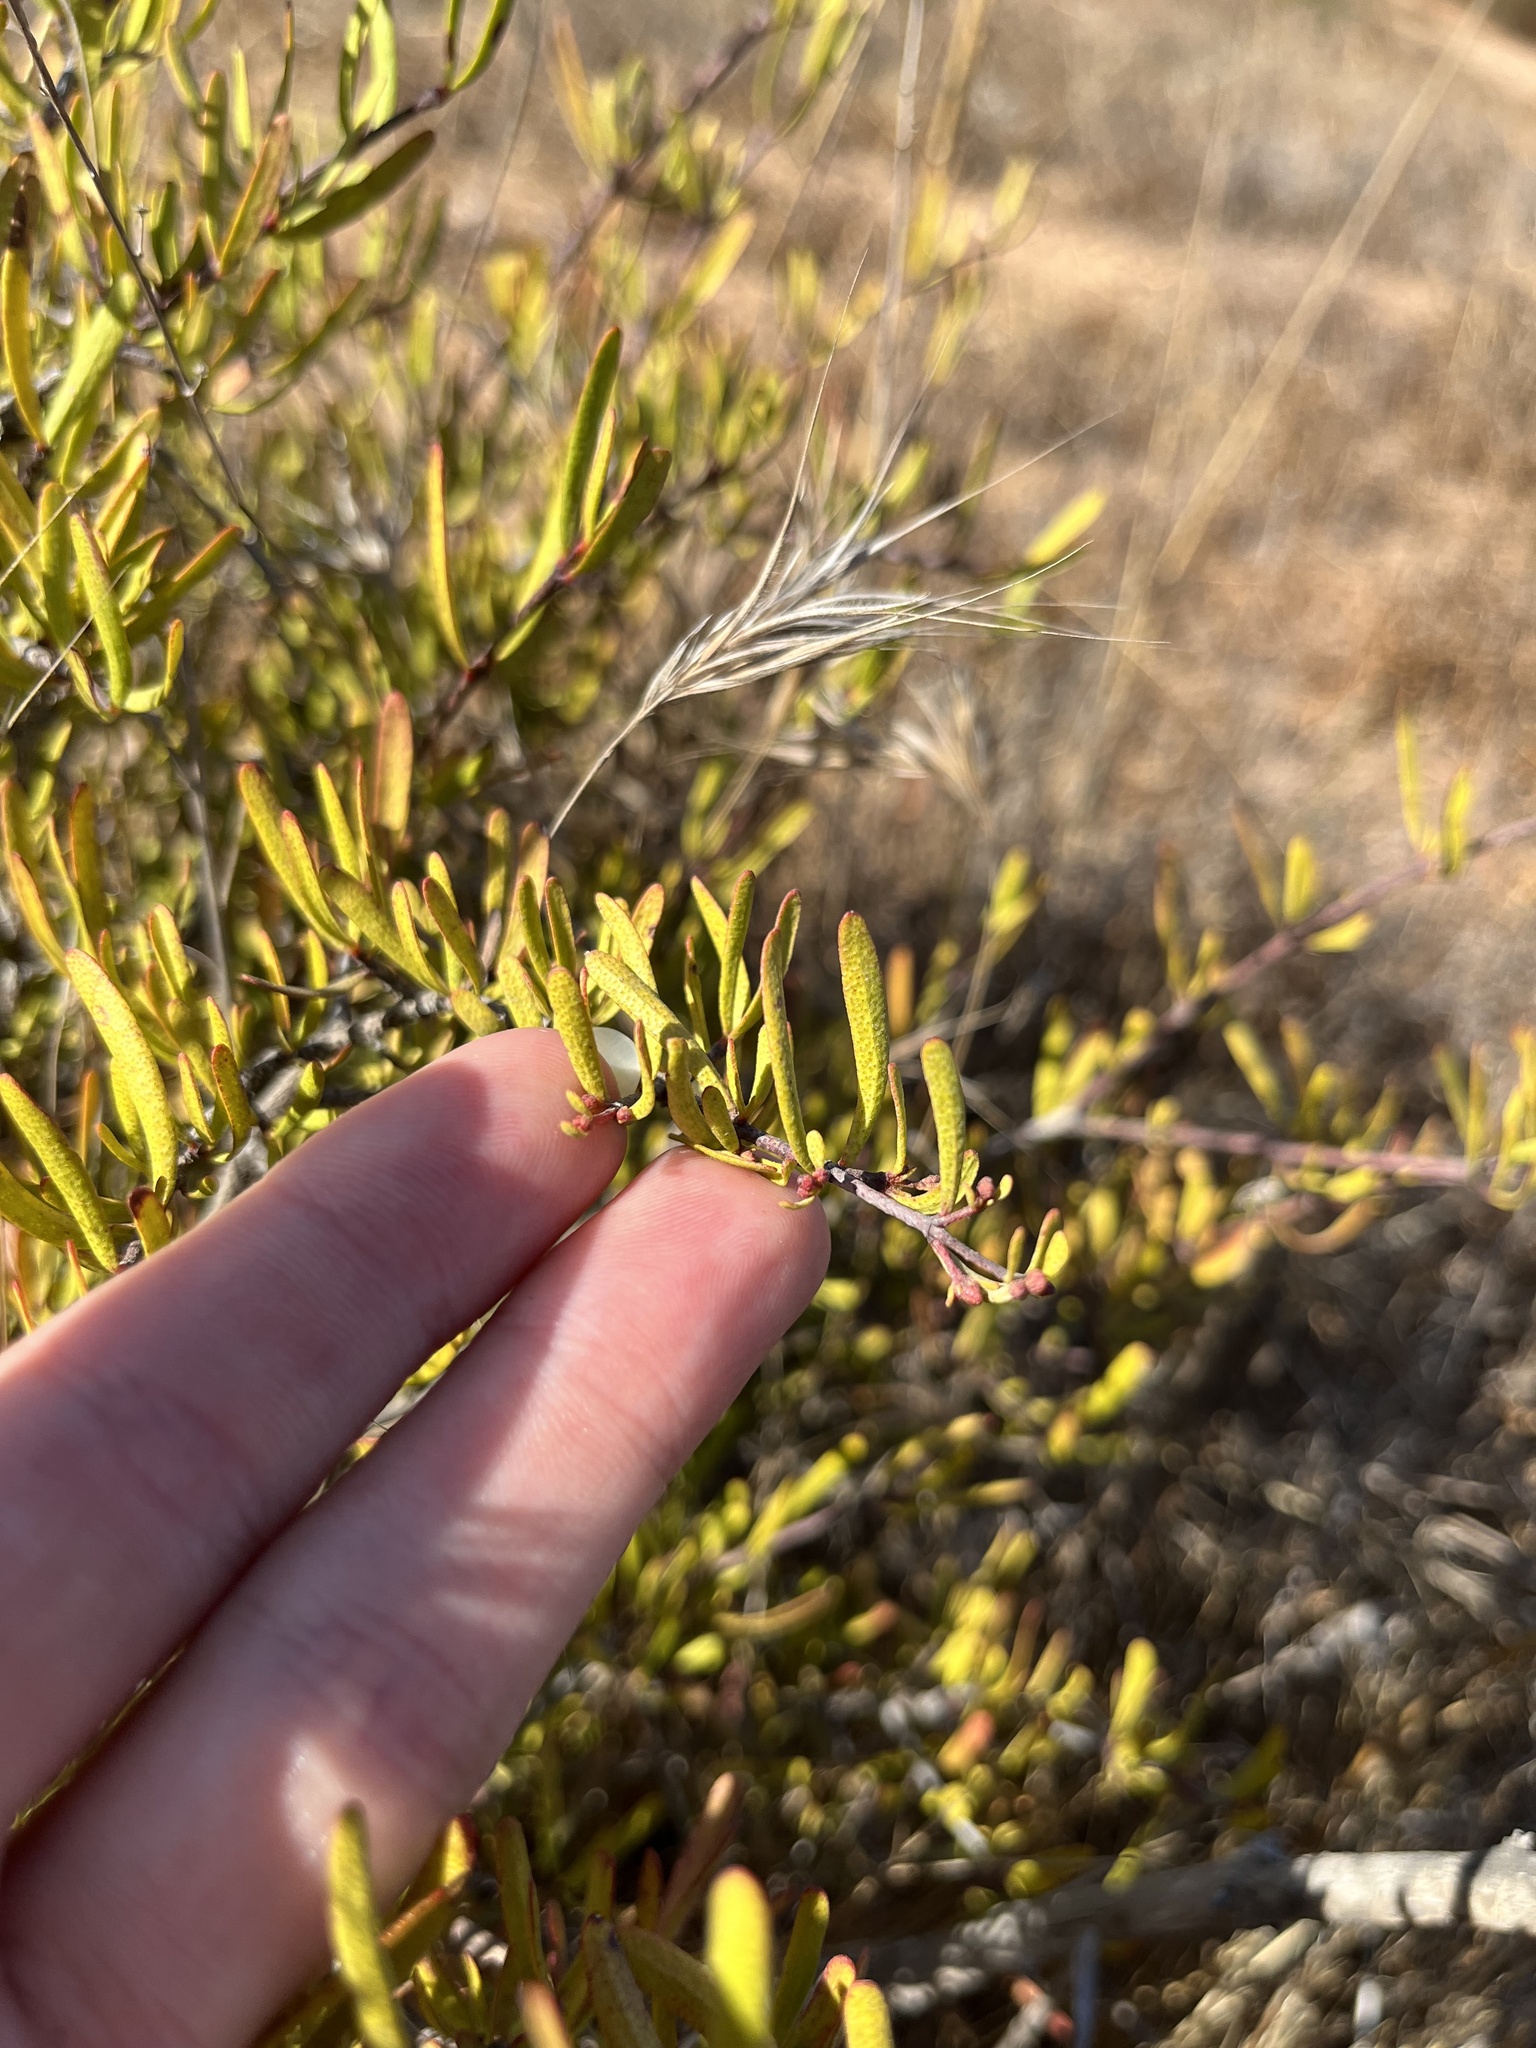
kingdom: Plantae
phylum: Tracheophyta
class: Magnoliopsida
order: Sapindales
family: Rutaceae
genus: Cneoridium
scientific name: Cneoridium dumosum
